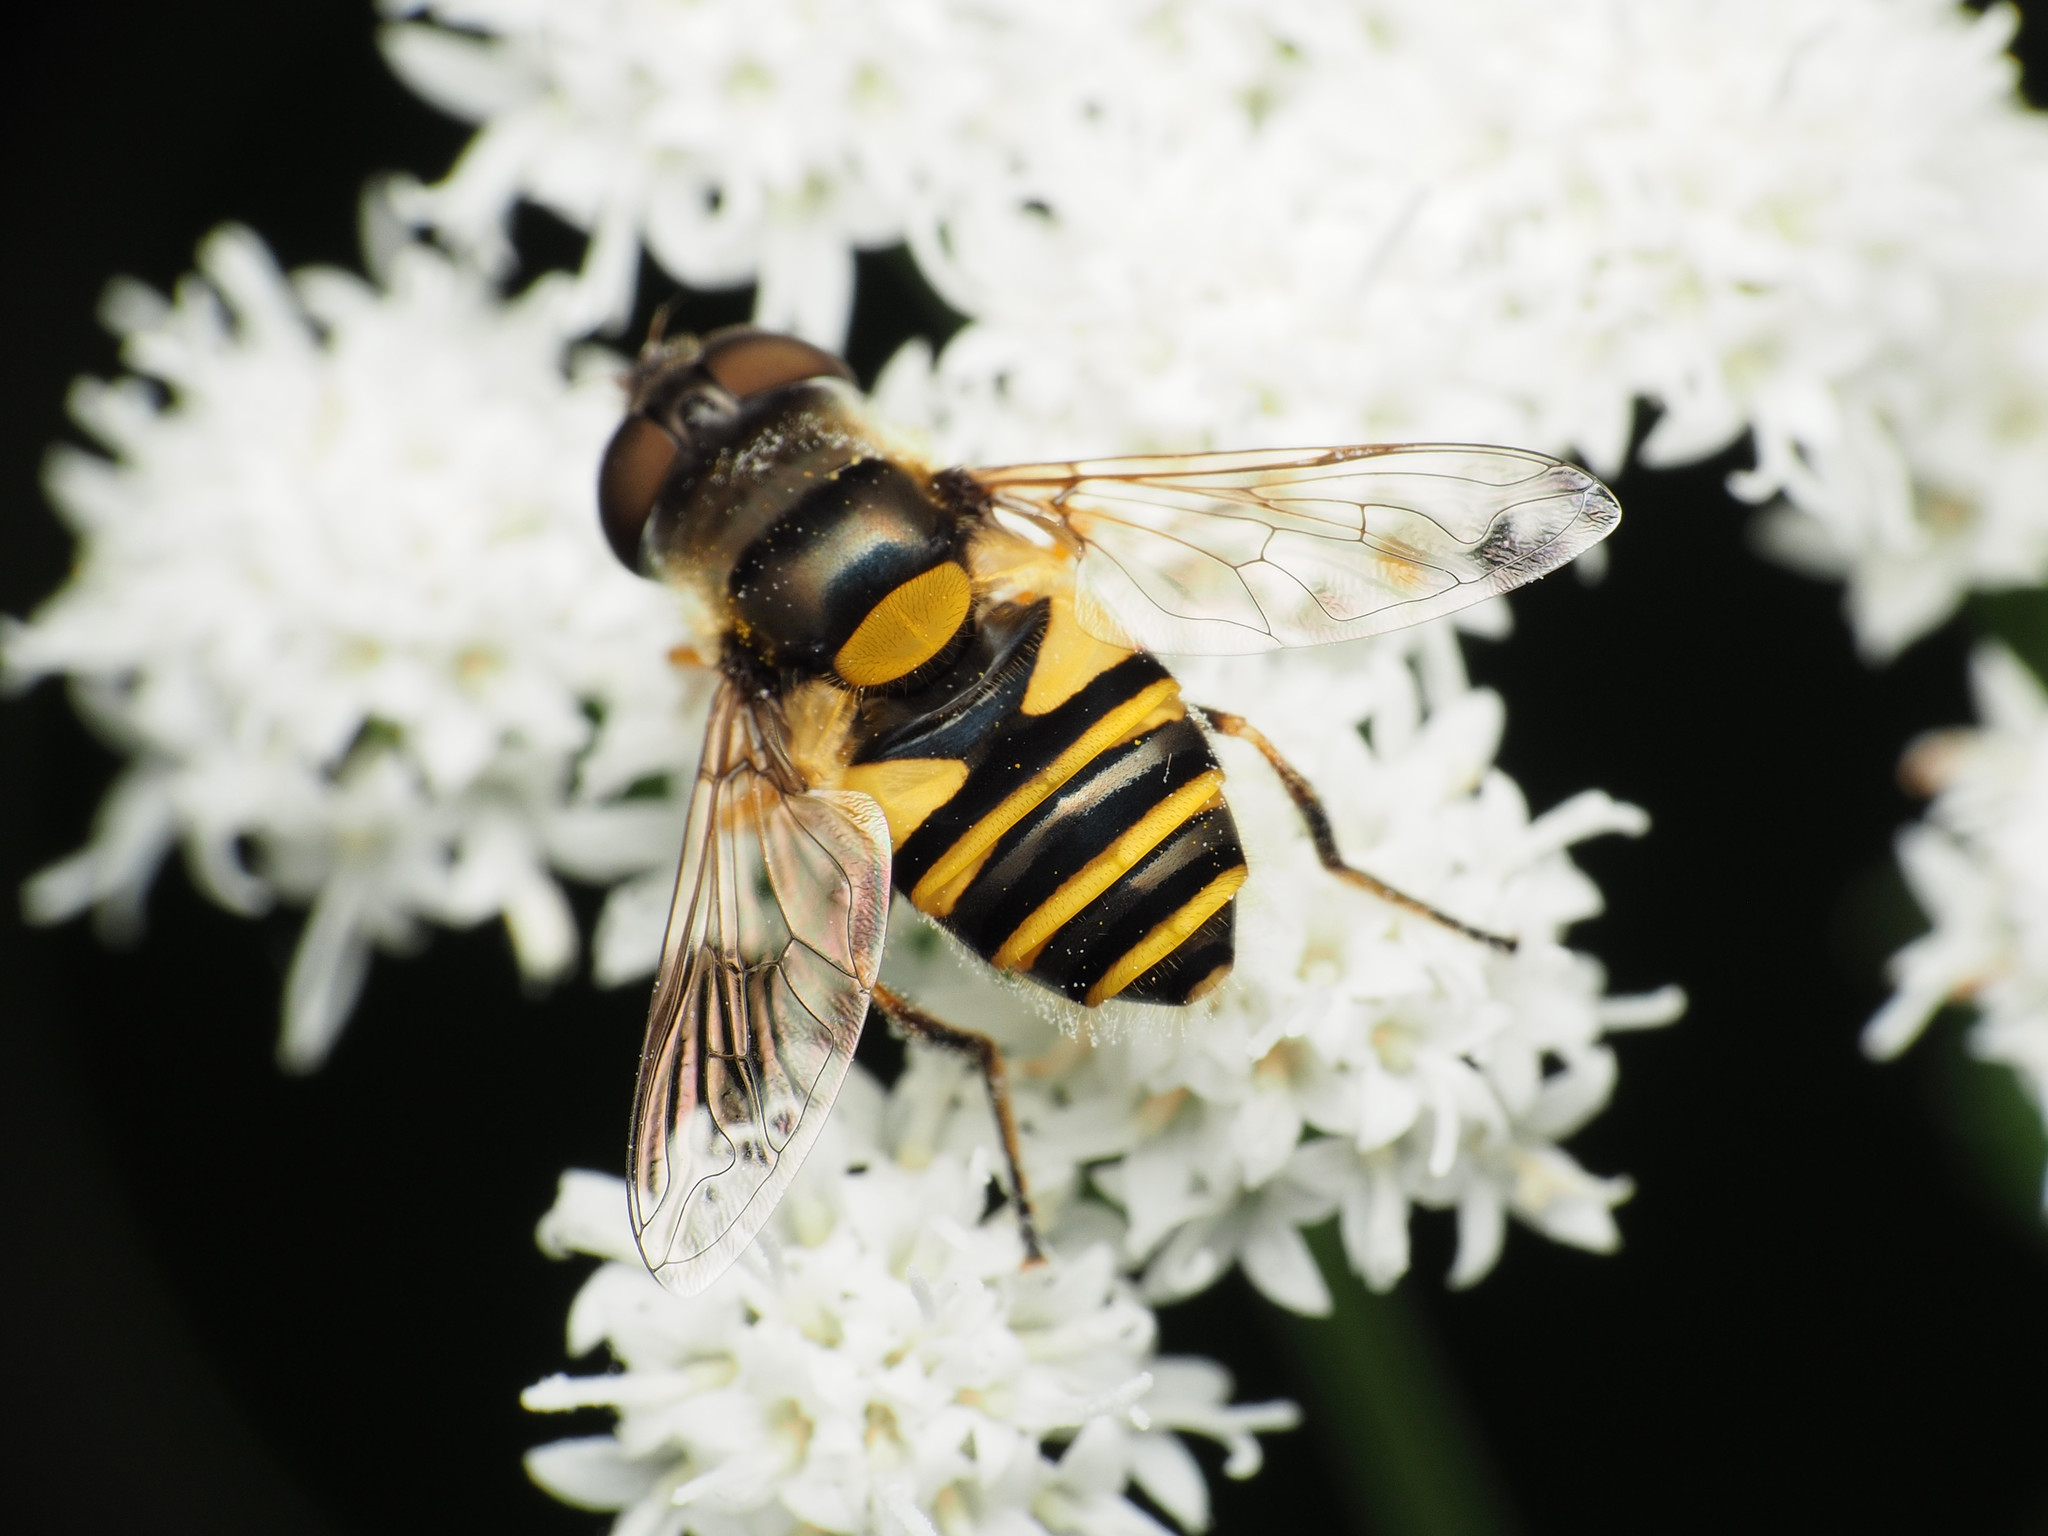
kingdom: Animalia
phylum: Arthropoda
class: Insecta
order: Diptera
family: Syrphidae
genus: Eristalis
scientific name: Eristalis transversa
